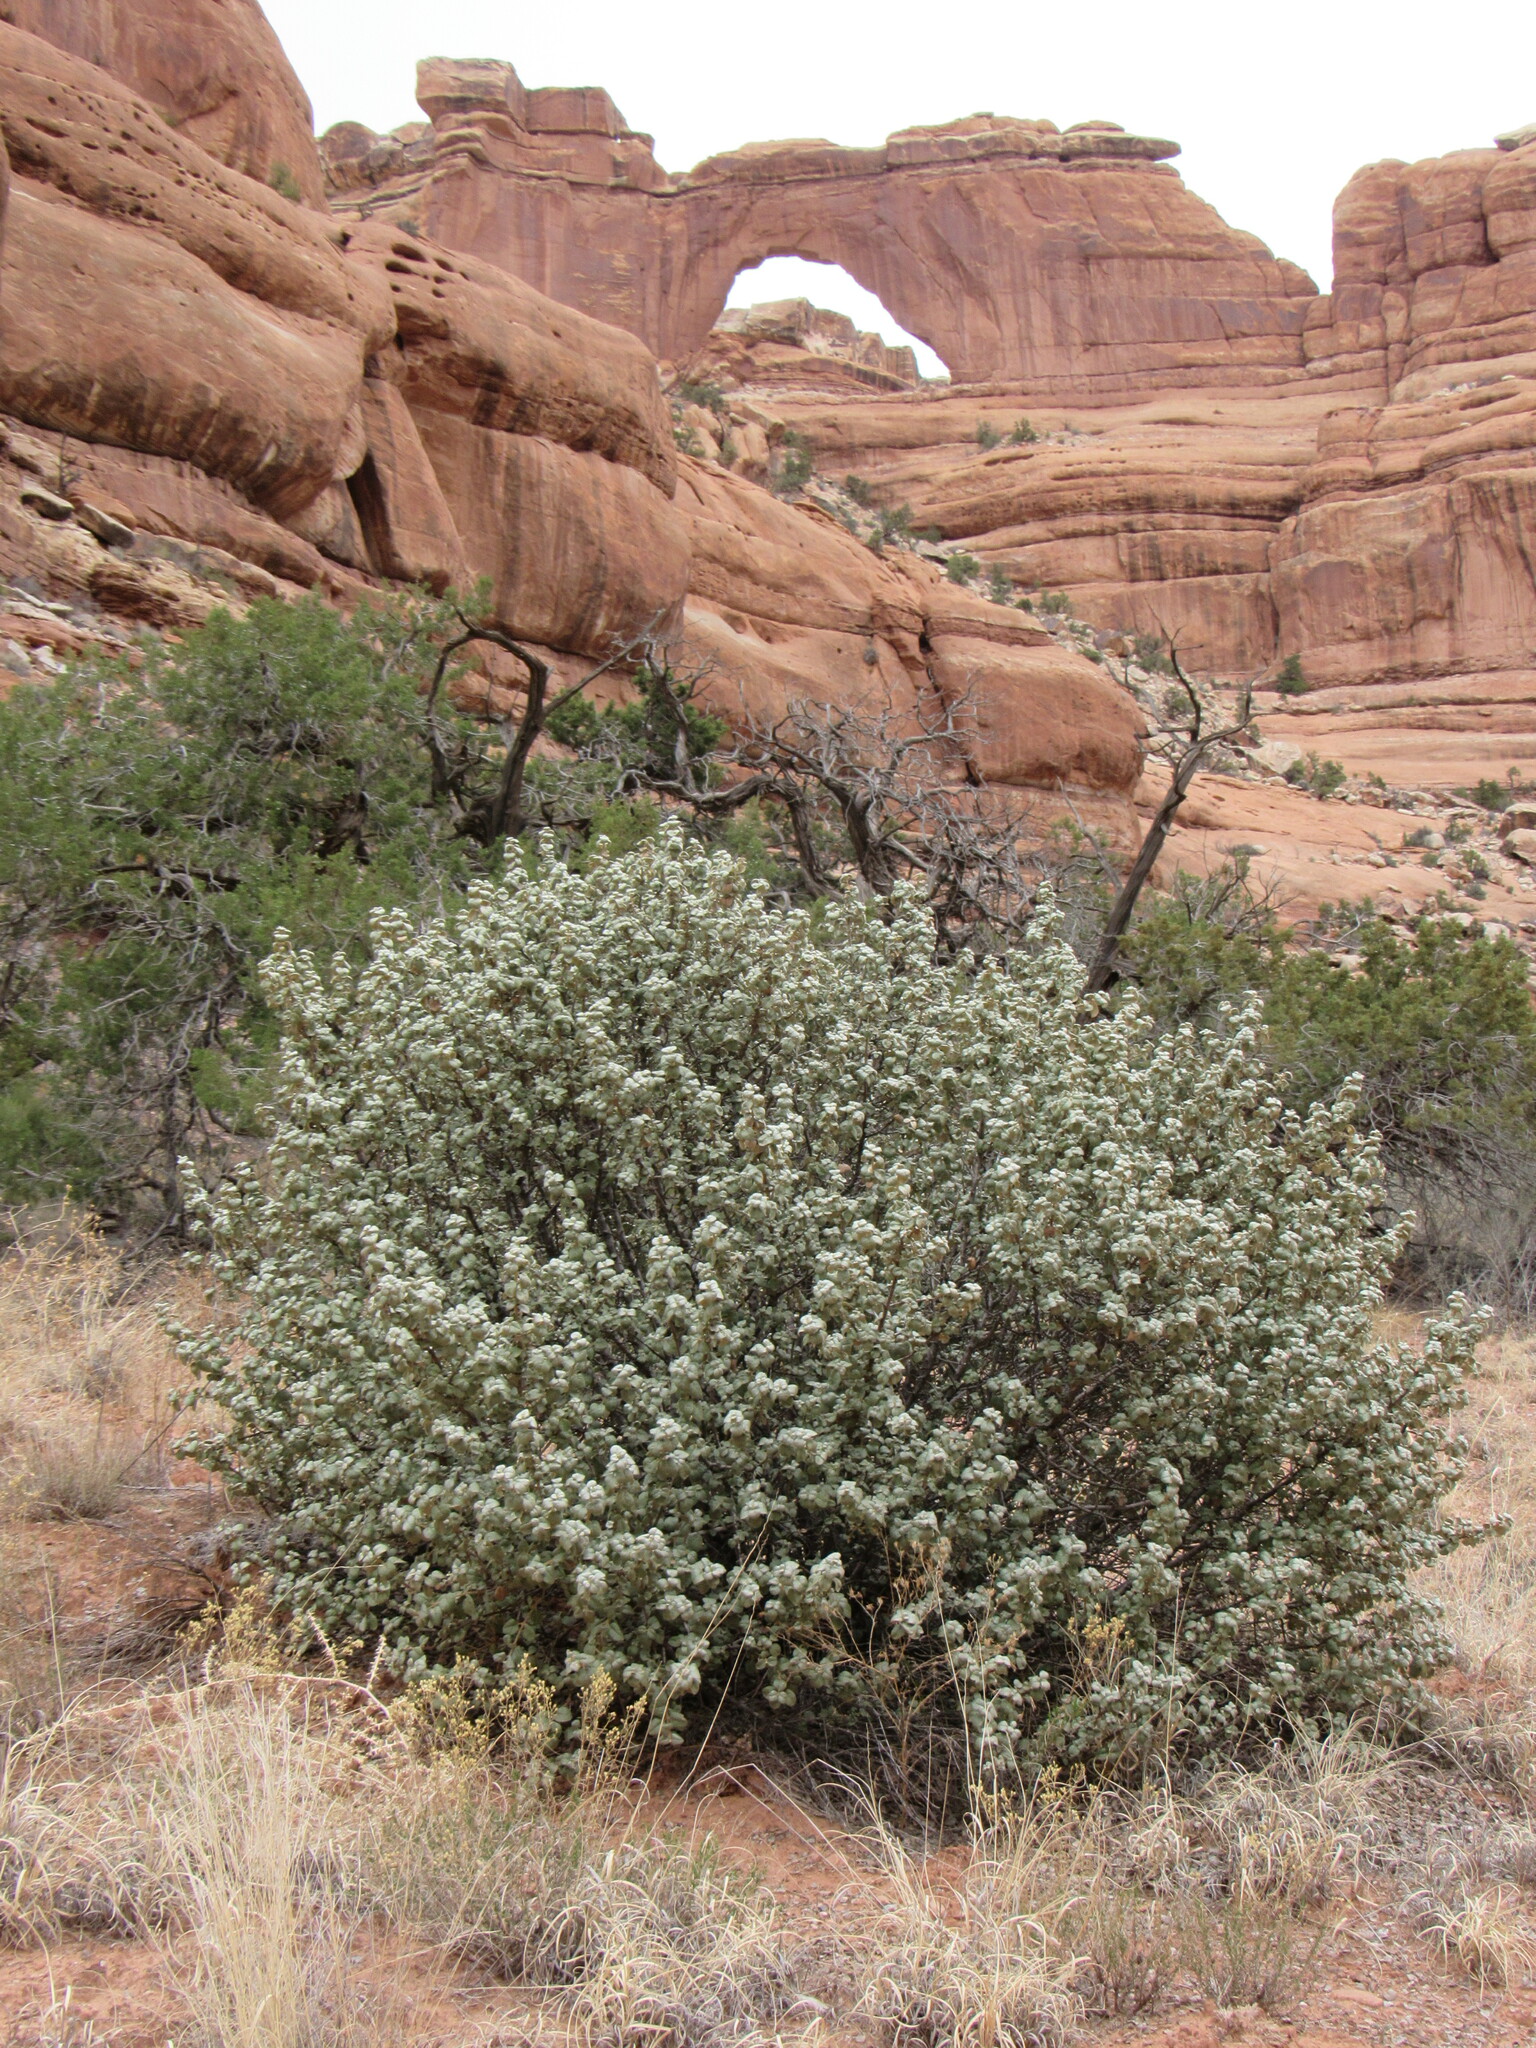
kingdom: Plantae
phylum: Tracheophyta
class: Magnoliopsida
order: Rosales
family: Elaeagnaceae
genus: Shepherdia
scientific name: Shepherdia rotundifolia
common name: Silverscale
